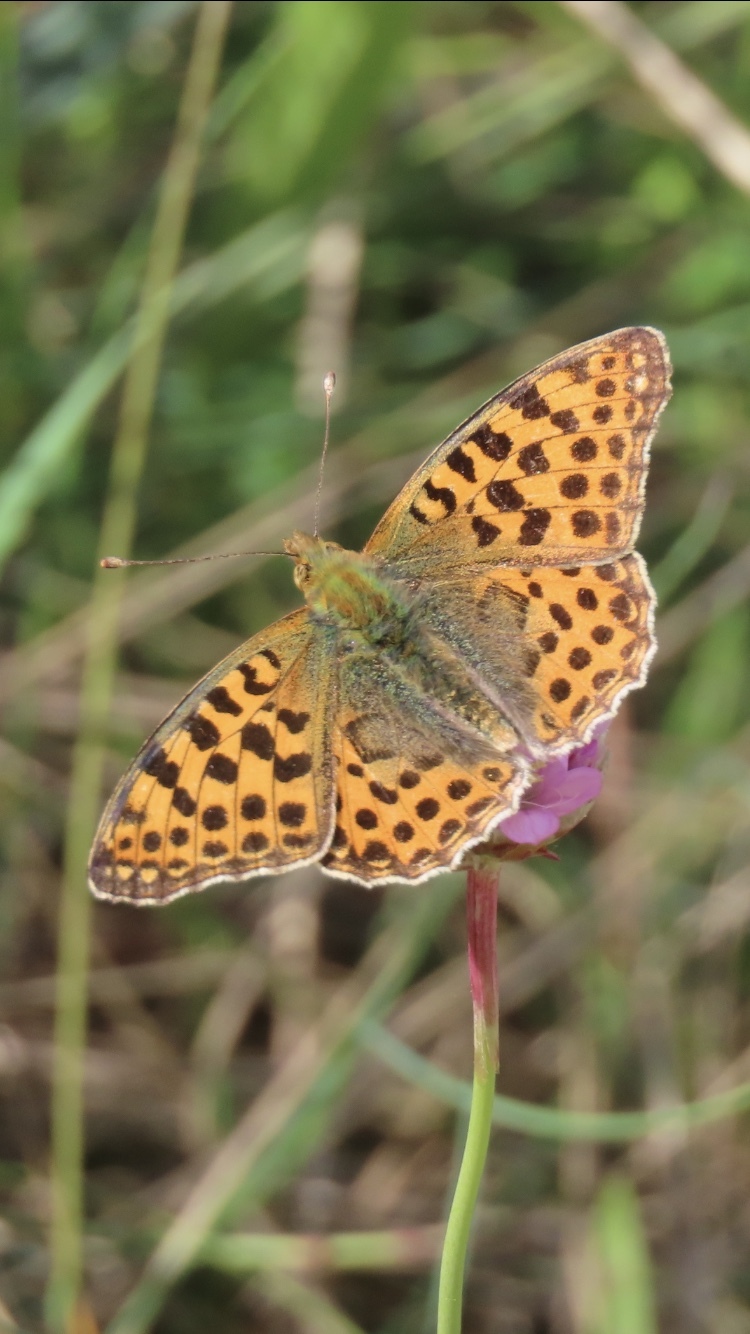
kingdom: Animalia
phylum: Arthropoda
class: Insecta
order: Lepidoptera
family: Nymphalidae
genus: Issoria
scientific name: Issoria lathonia
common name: Queen of spain fritillary
